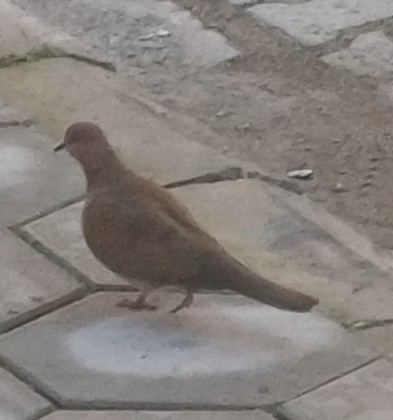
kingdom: Animalia
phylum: Chordata
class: Aves
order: Columbiformes
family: Columbidae
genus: Spilopelia
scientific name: Spilopelia senegalensis
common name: Laughing dove
